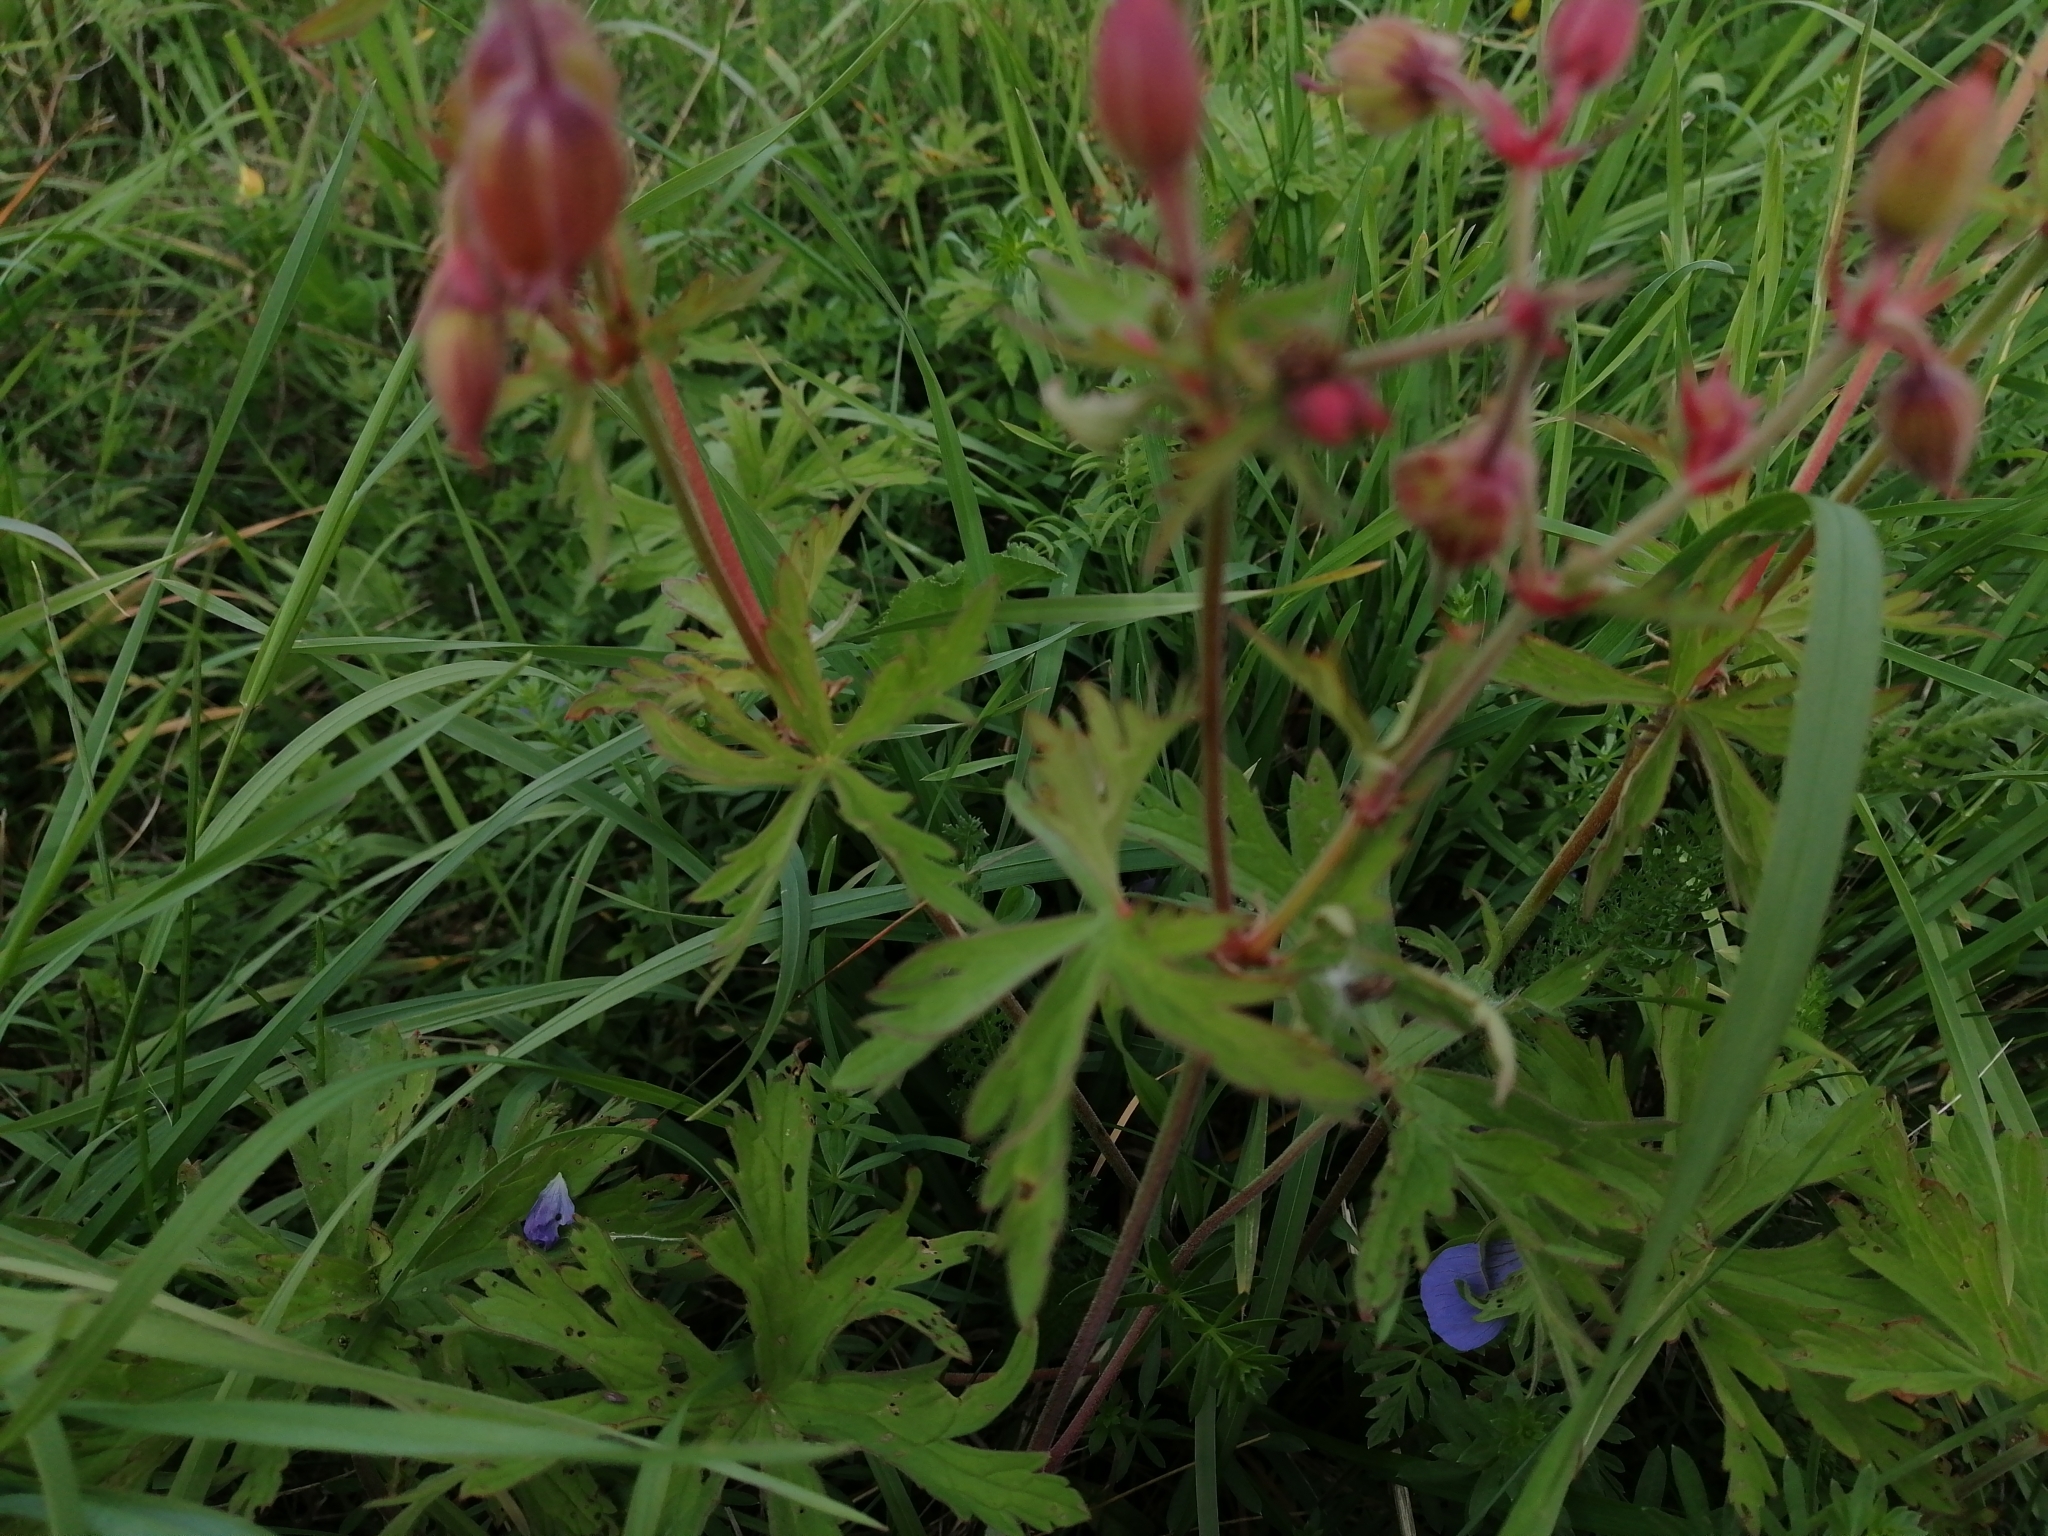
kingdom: Plantae
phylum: Tracheophyta
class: Magnoliopsida
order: Geraniales
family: Geraniaceae
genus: Geranium
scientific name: Geranium pratense
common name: Meadow crane's-bill
